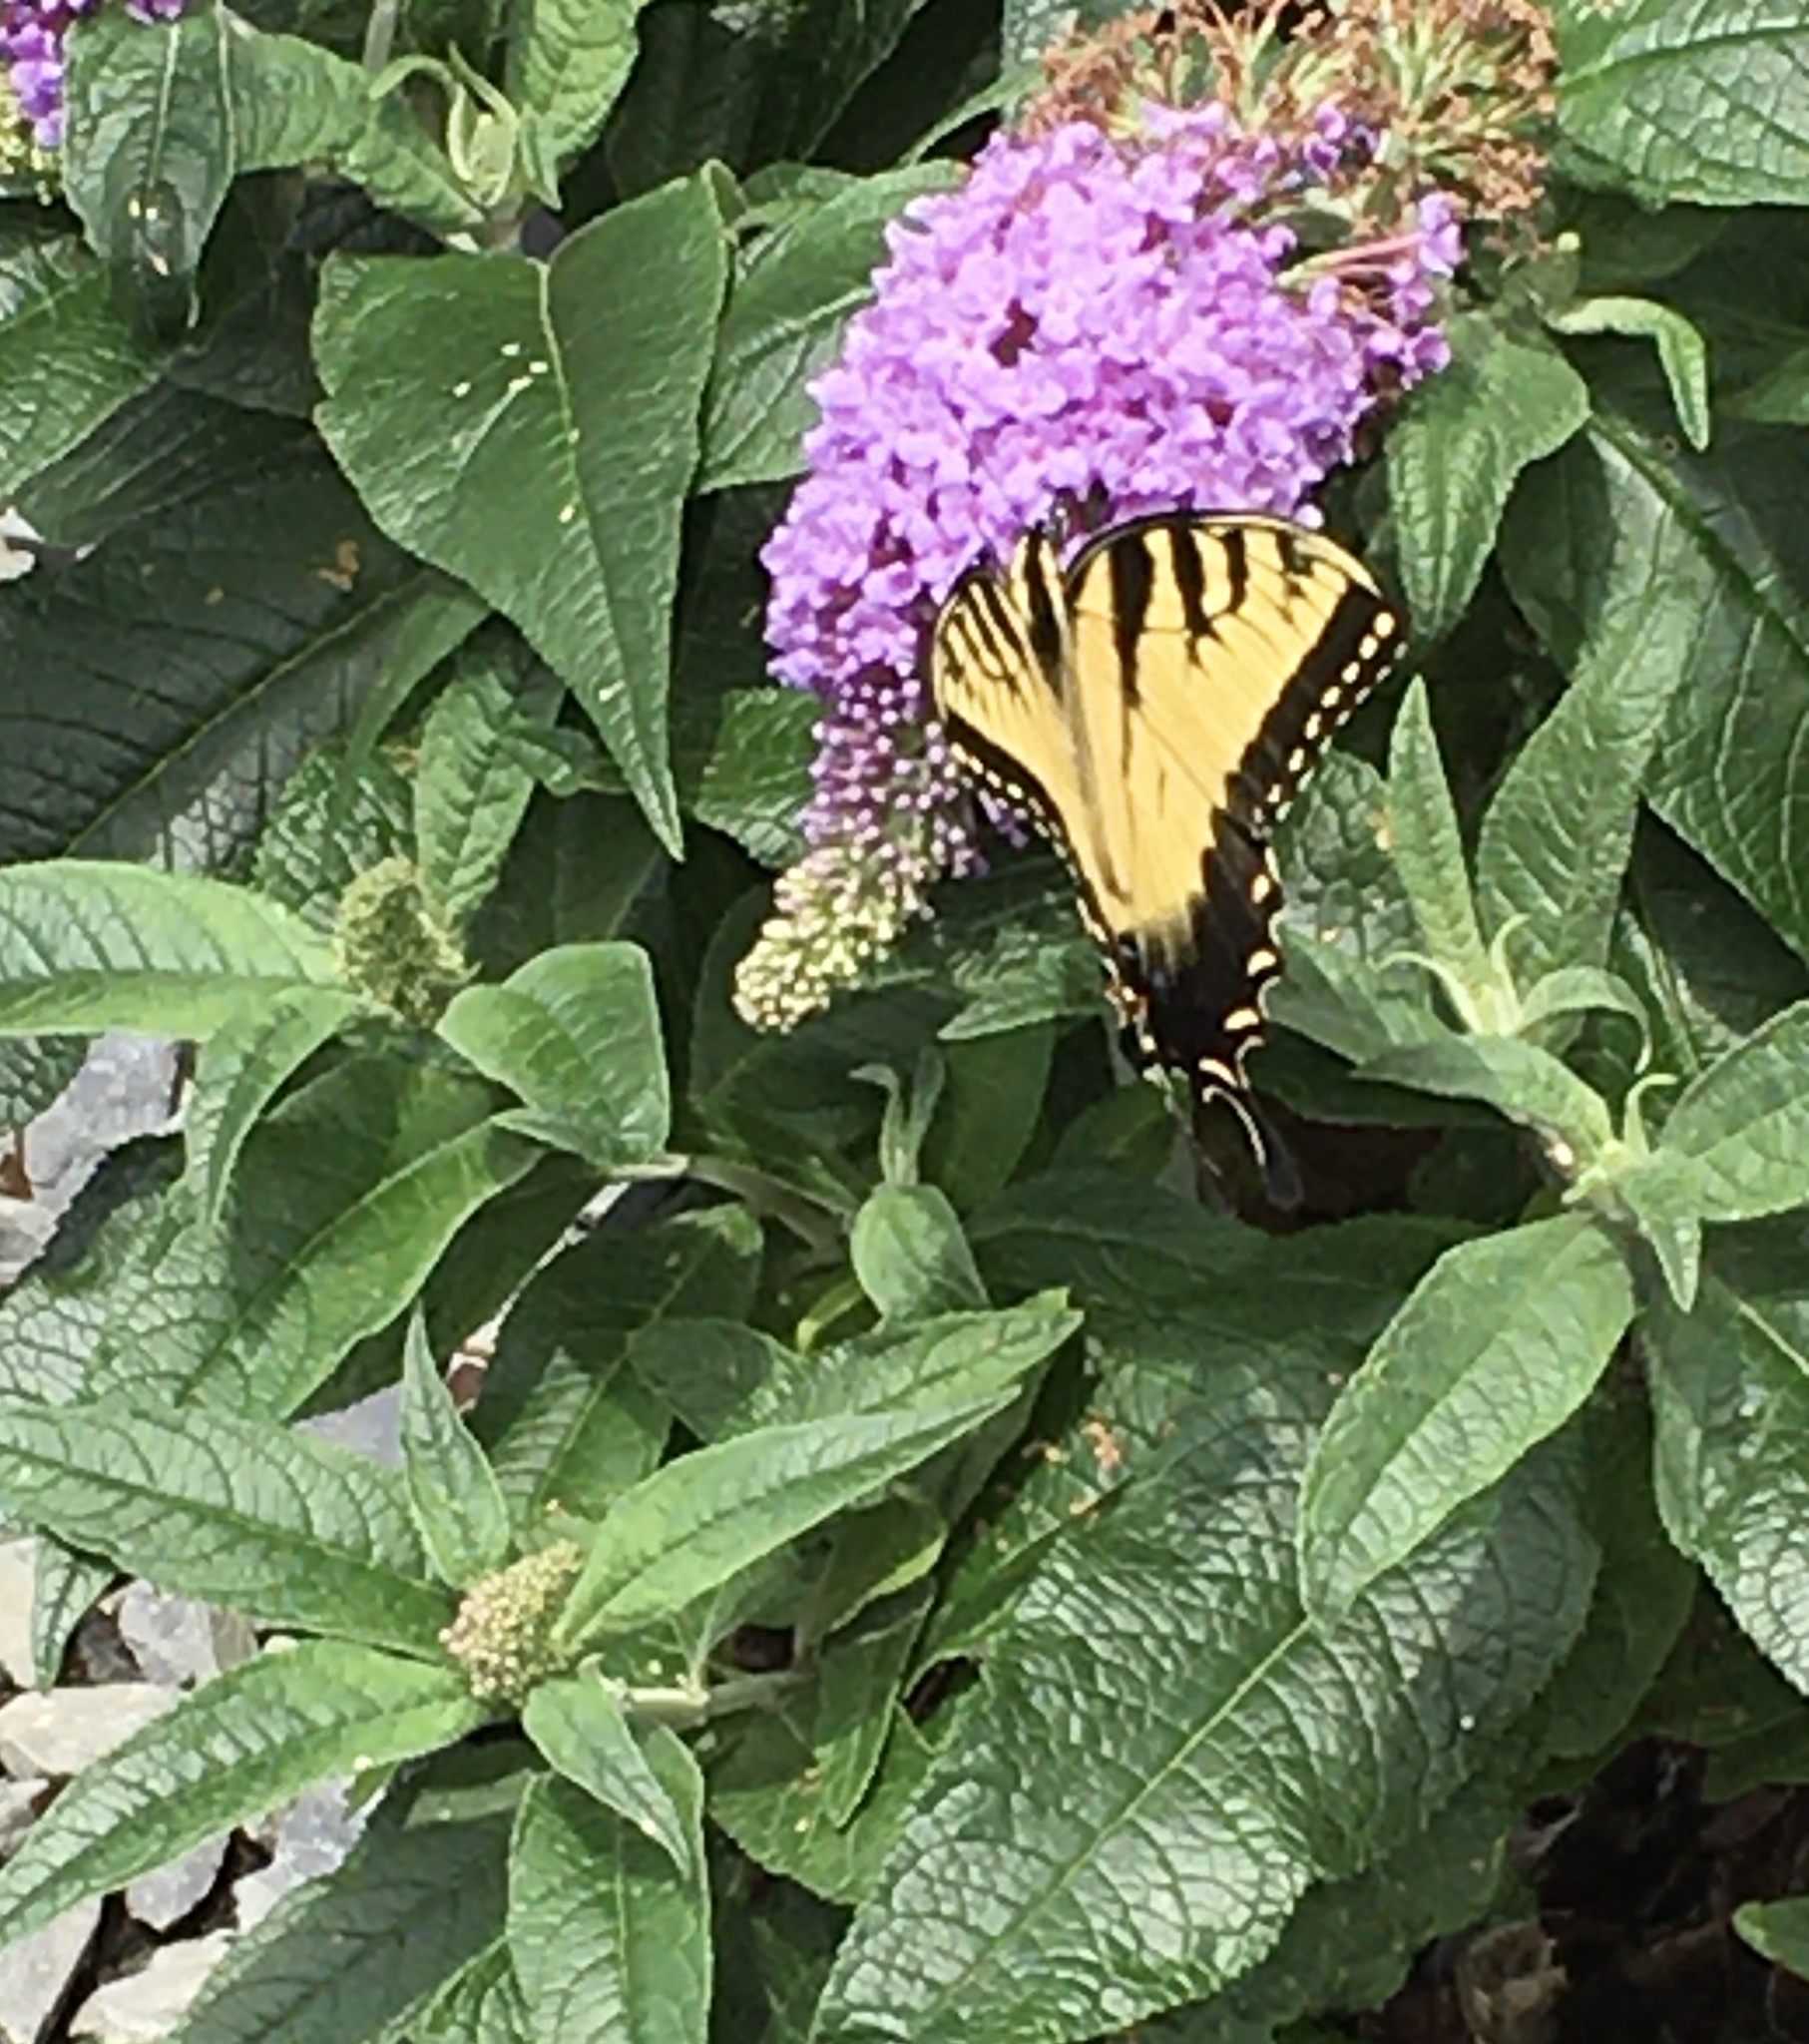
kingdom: Animalia
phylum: Arthropoda
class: Insecta
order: Lepidoptera
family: Papilionidae
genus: Papilio
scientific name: Papilio glaucus
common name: Tiger swallowtail
